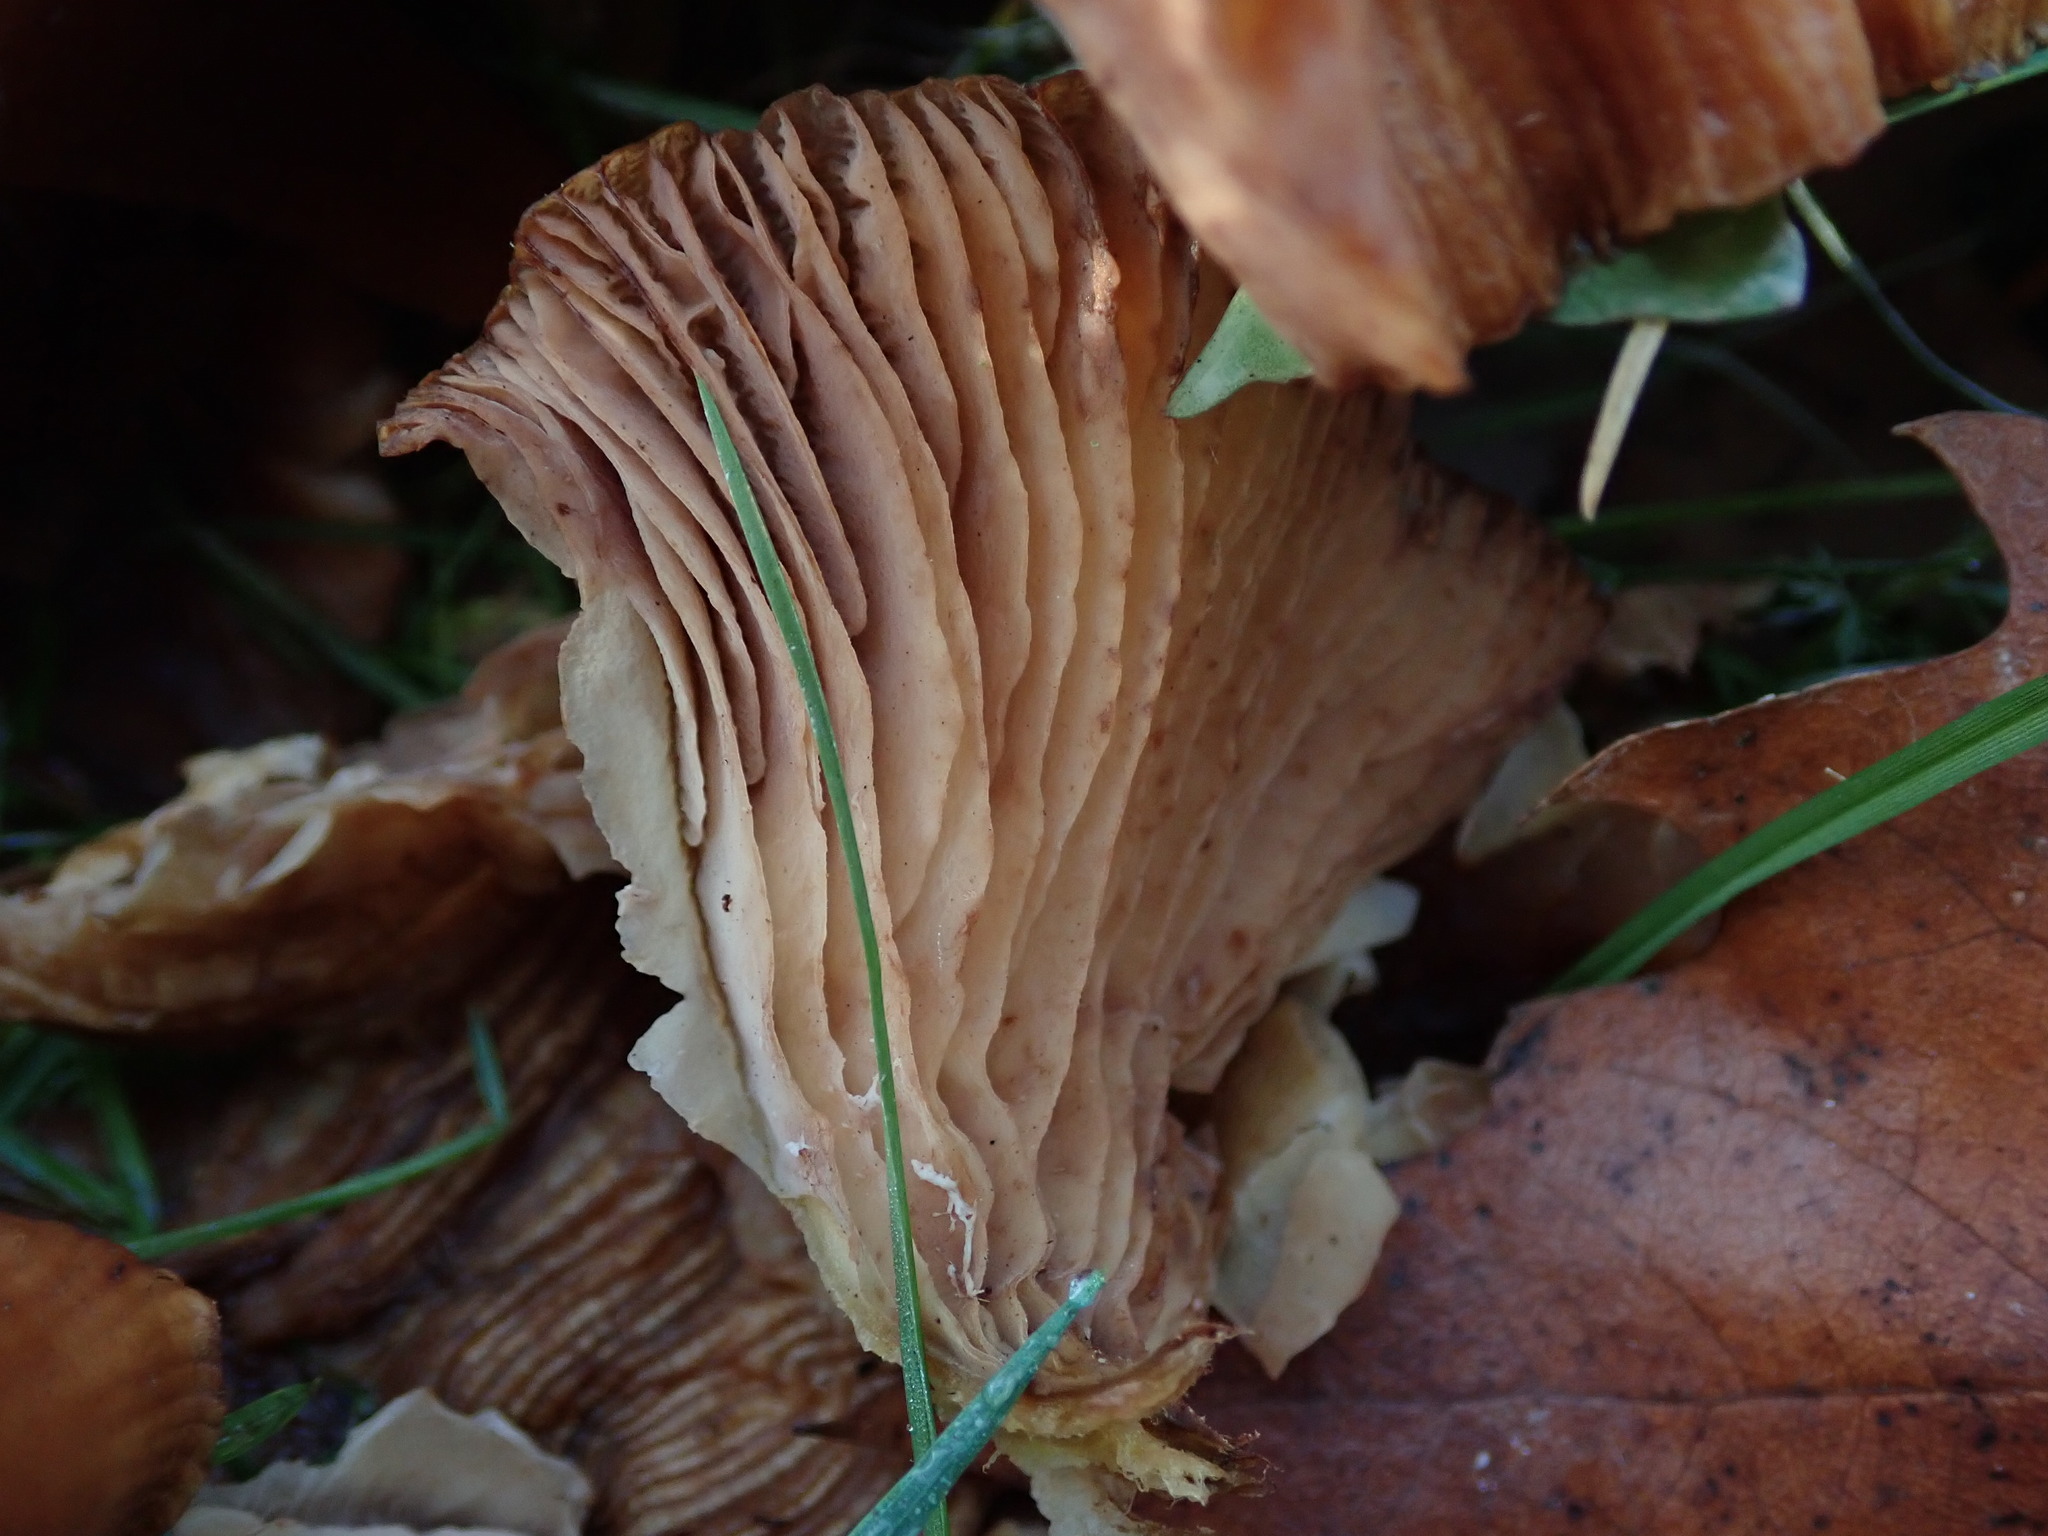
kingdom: Fungi
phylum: Basidiomycota
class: Agaricomycetes
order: Agaricales
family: Physalacriaceae
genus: Armillaria
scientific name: Armillaria mellea
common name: Honey fungus
